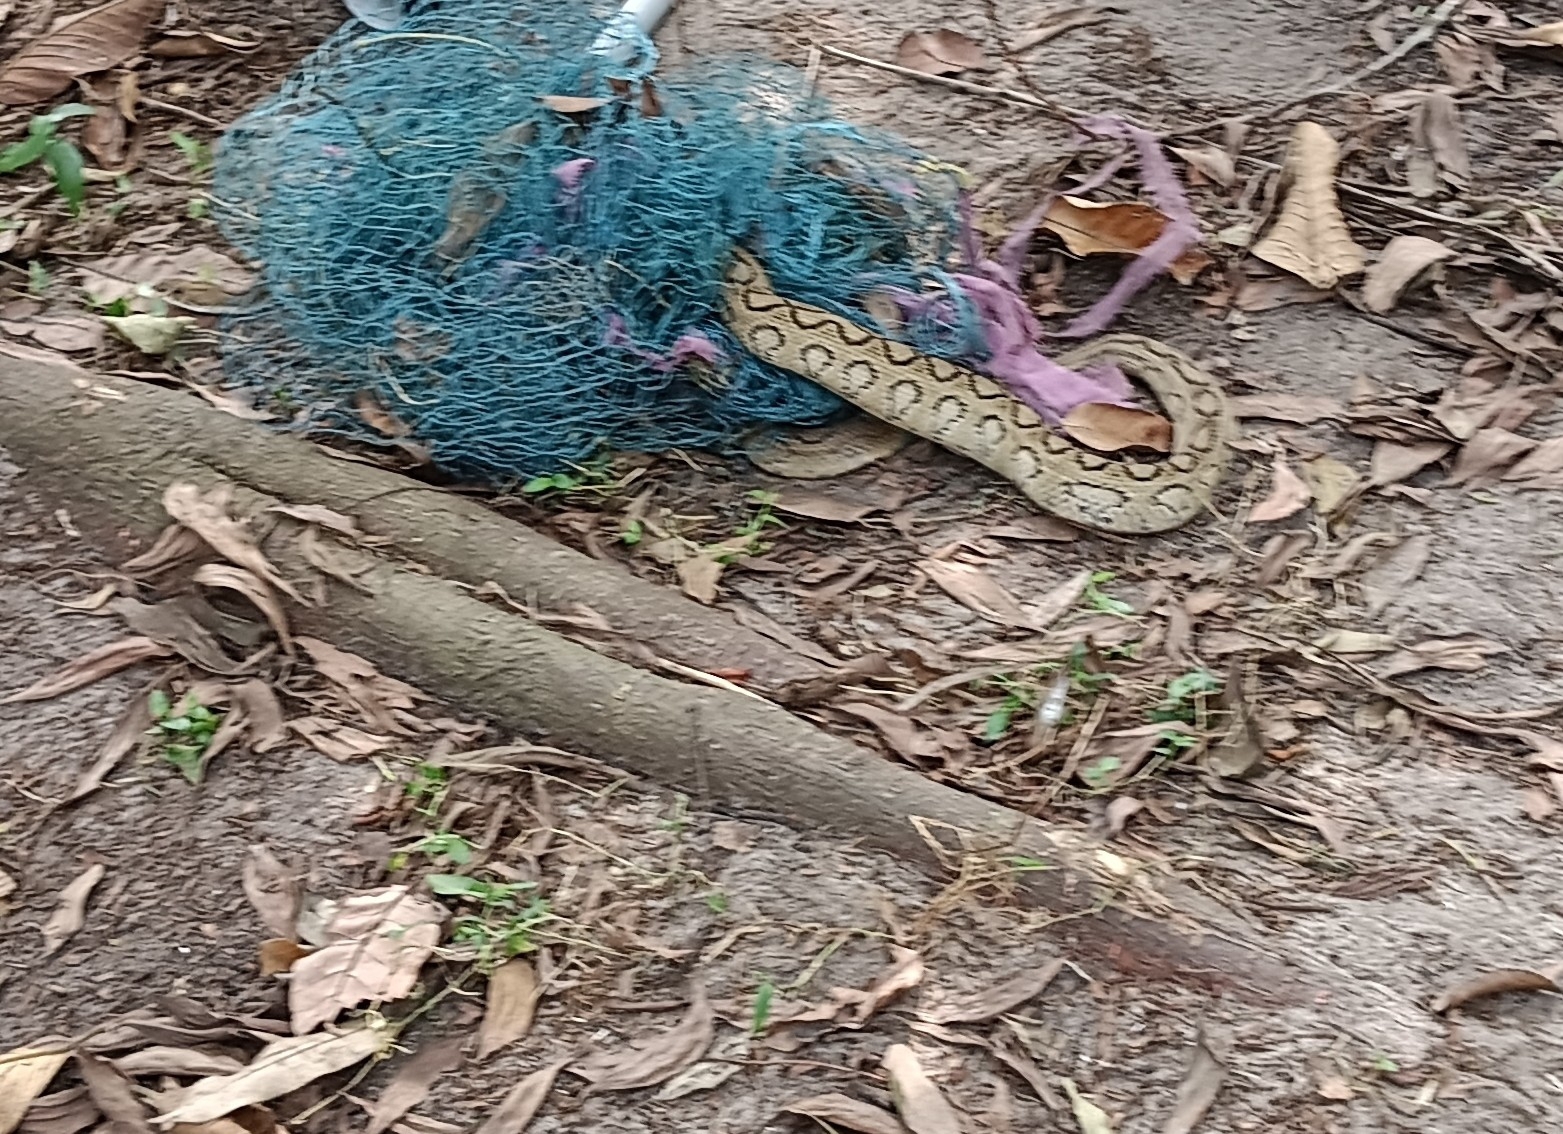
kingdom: Animalia
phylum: Chordata
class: Squamata
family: Viperidae
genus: Daboia
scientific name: Daboia russelii
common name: Western russel’s viper
